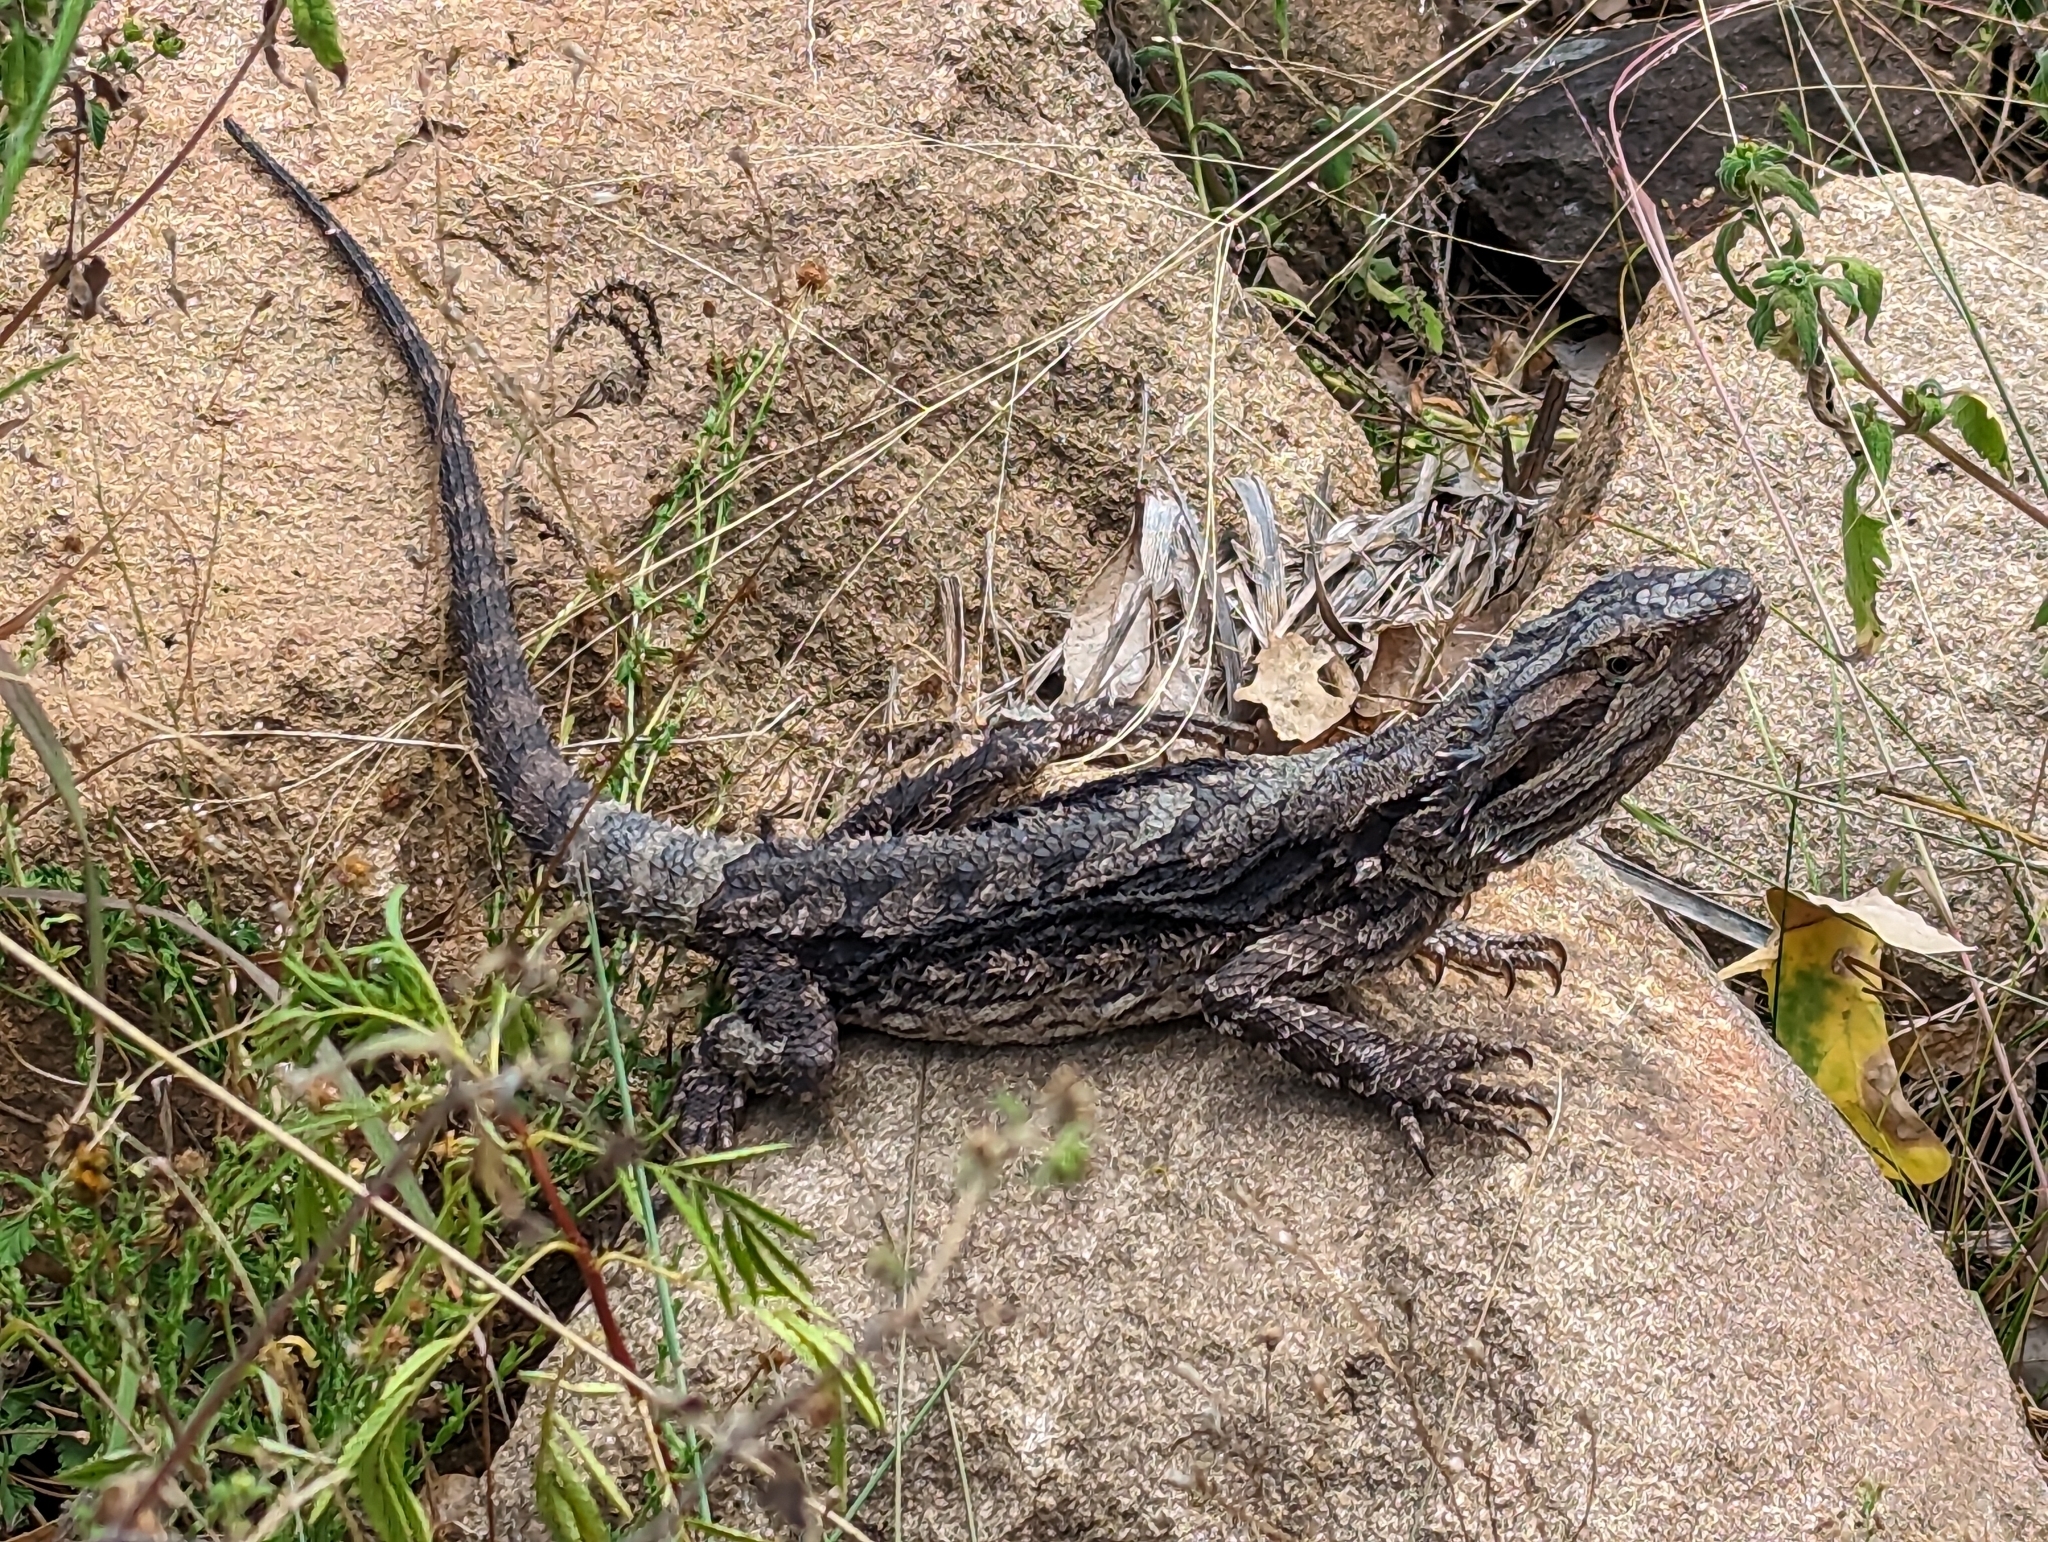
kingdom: Animalia
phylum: Chordata
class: Squamata
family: Agamidae
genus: Pogona
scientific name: Pogona barbata
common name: Bearded dragon
